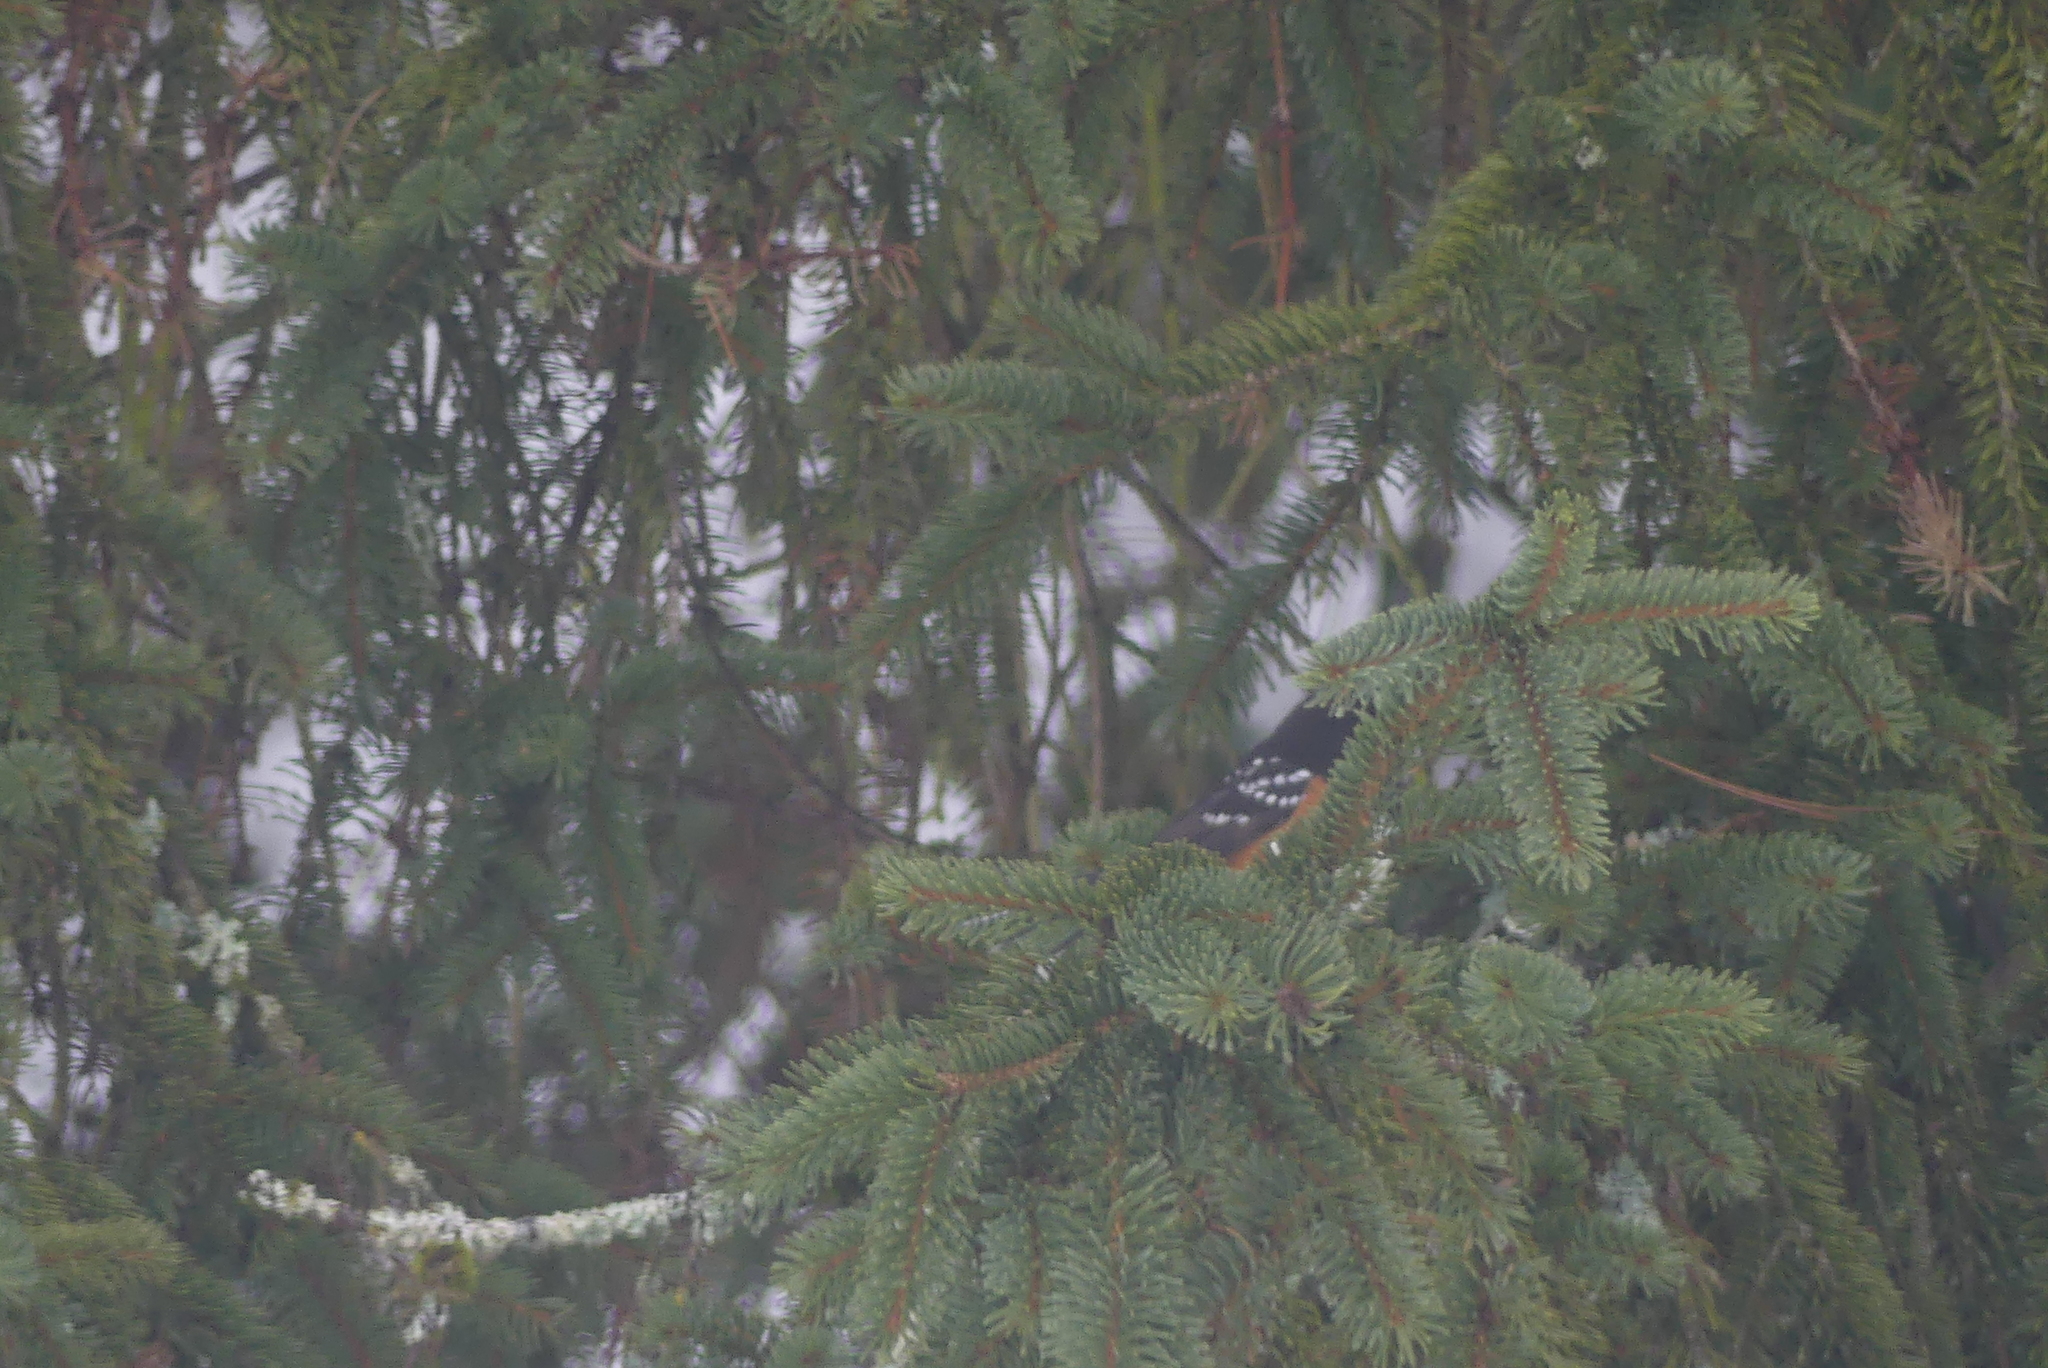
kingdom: Animalia
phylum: Chordata
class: Aves
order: Passeriformes
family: Passerellidae
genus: Pipilo
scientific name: Pipilo maculatus
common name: Spotted towhee
